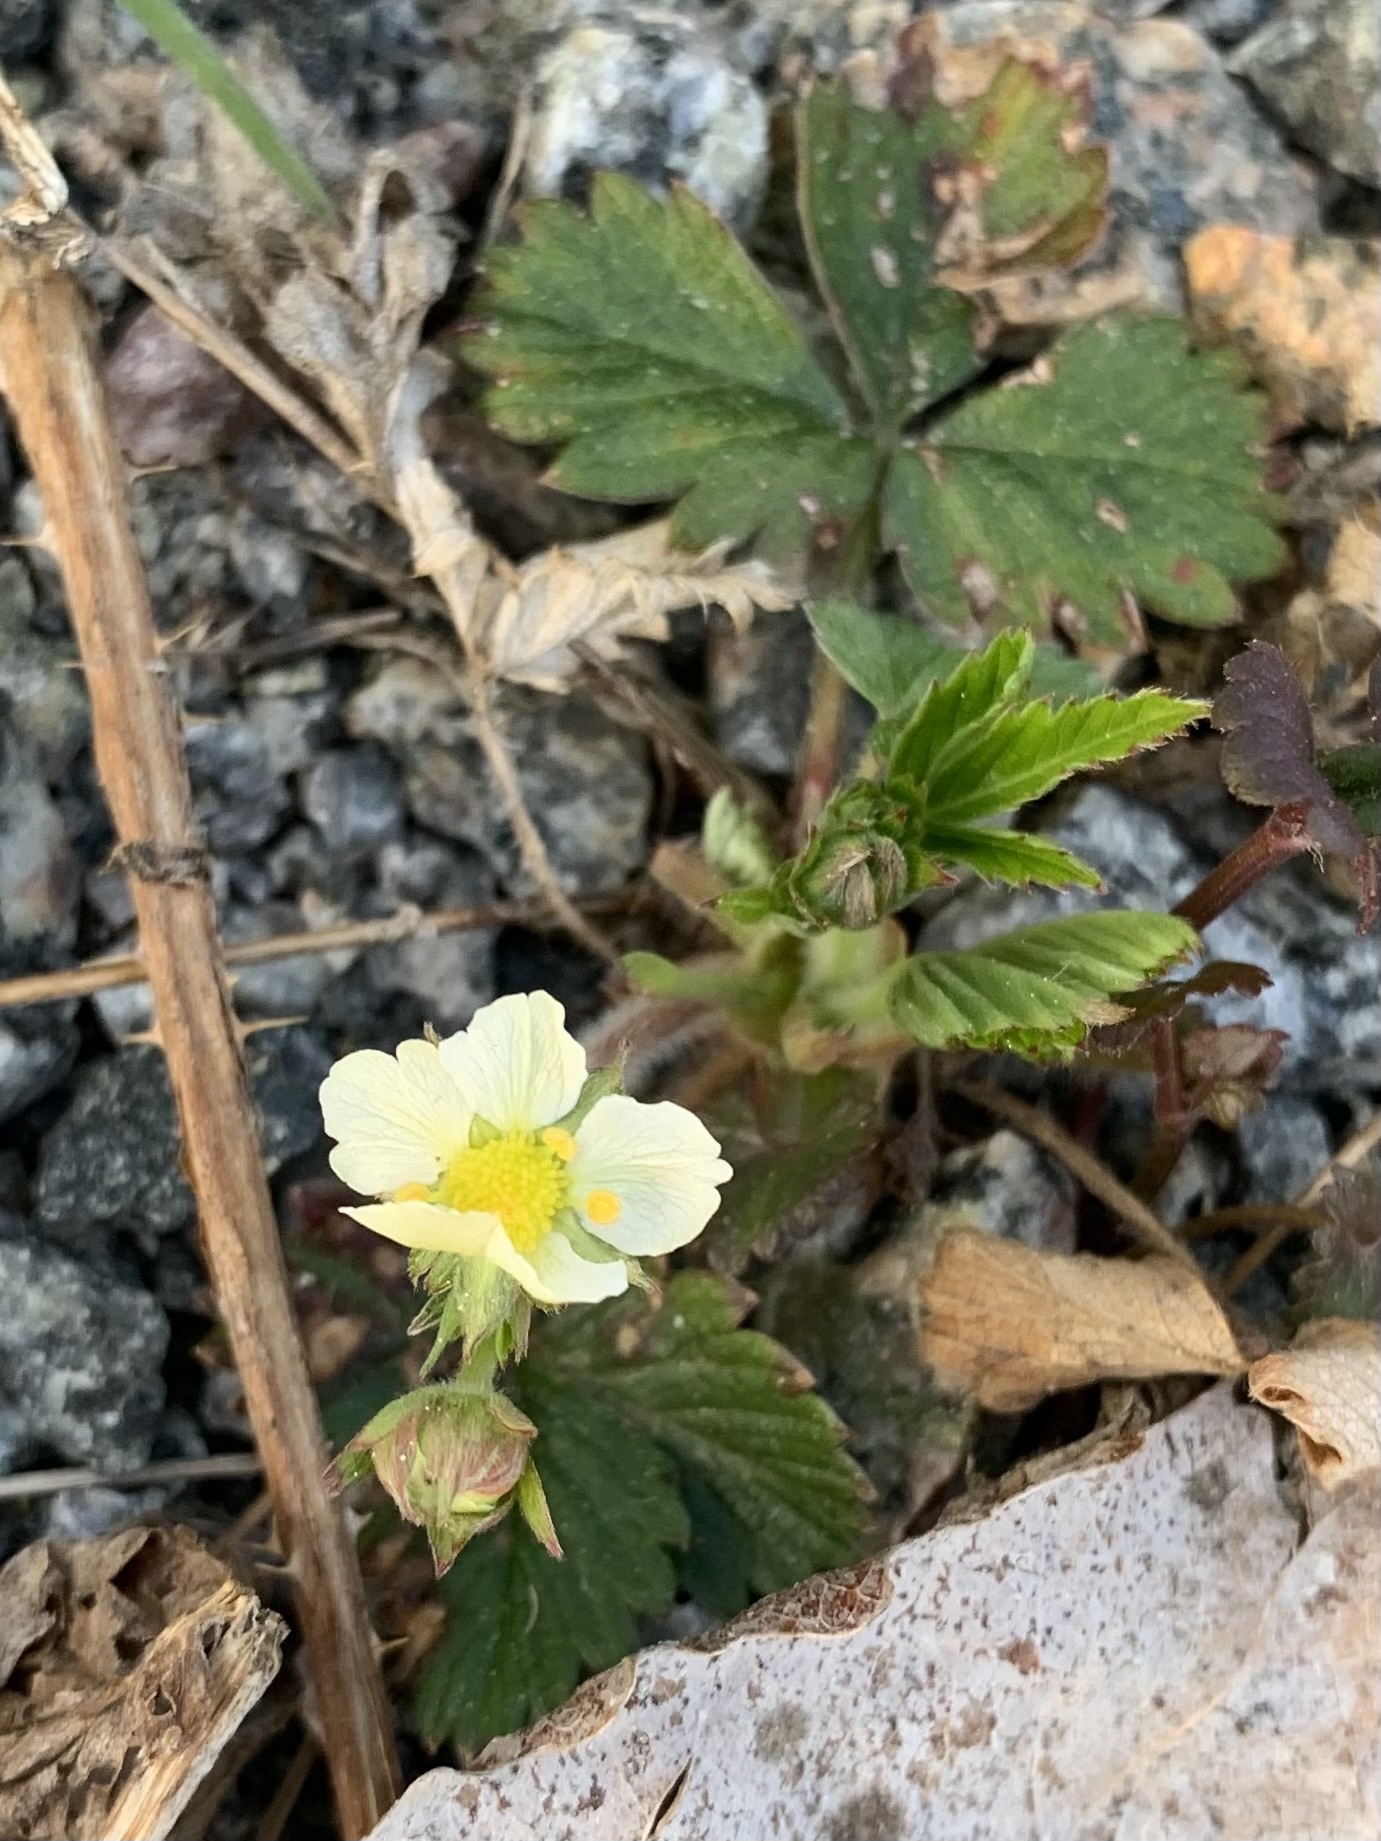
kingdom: Plantae
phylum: Tracheophyta
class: Magnoliopsida
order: Rosales
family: Rosaceae
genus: Fragaria
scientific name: Fragaria vesca
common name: Wild strawberry
